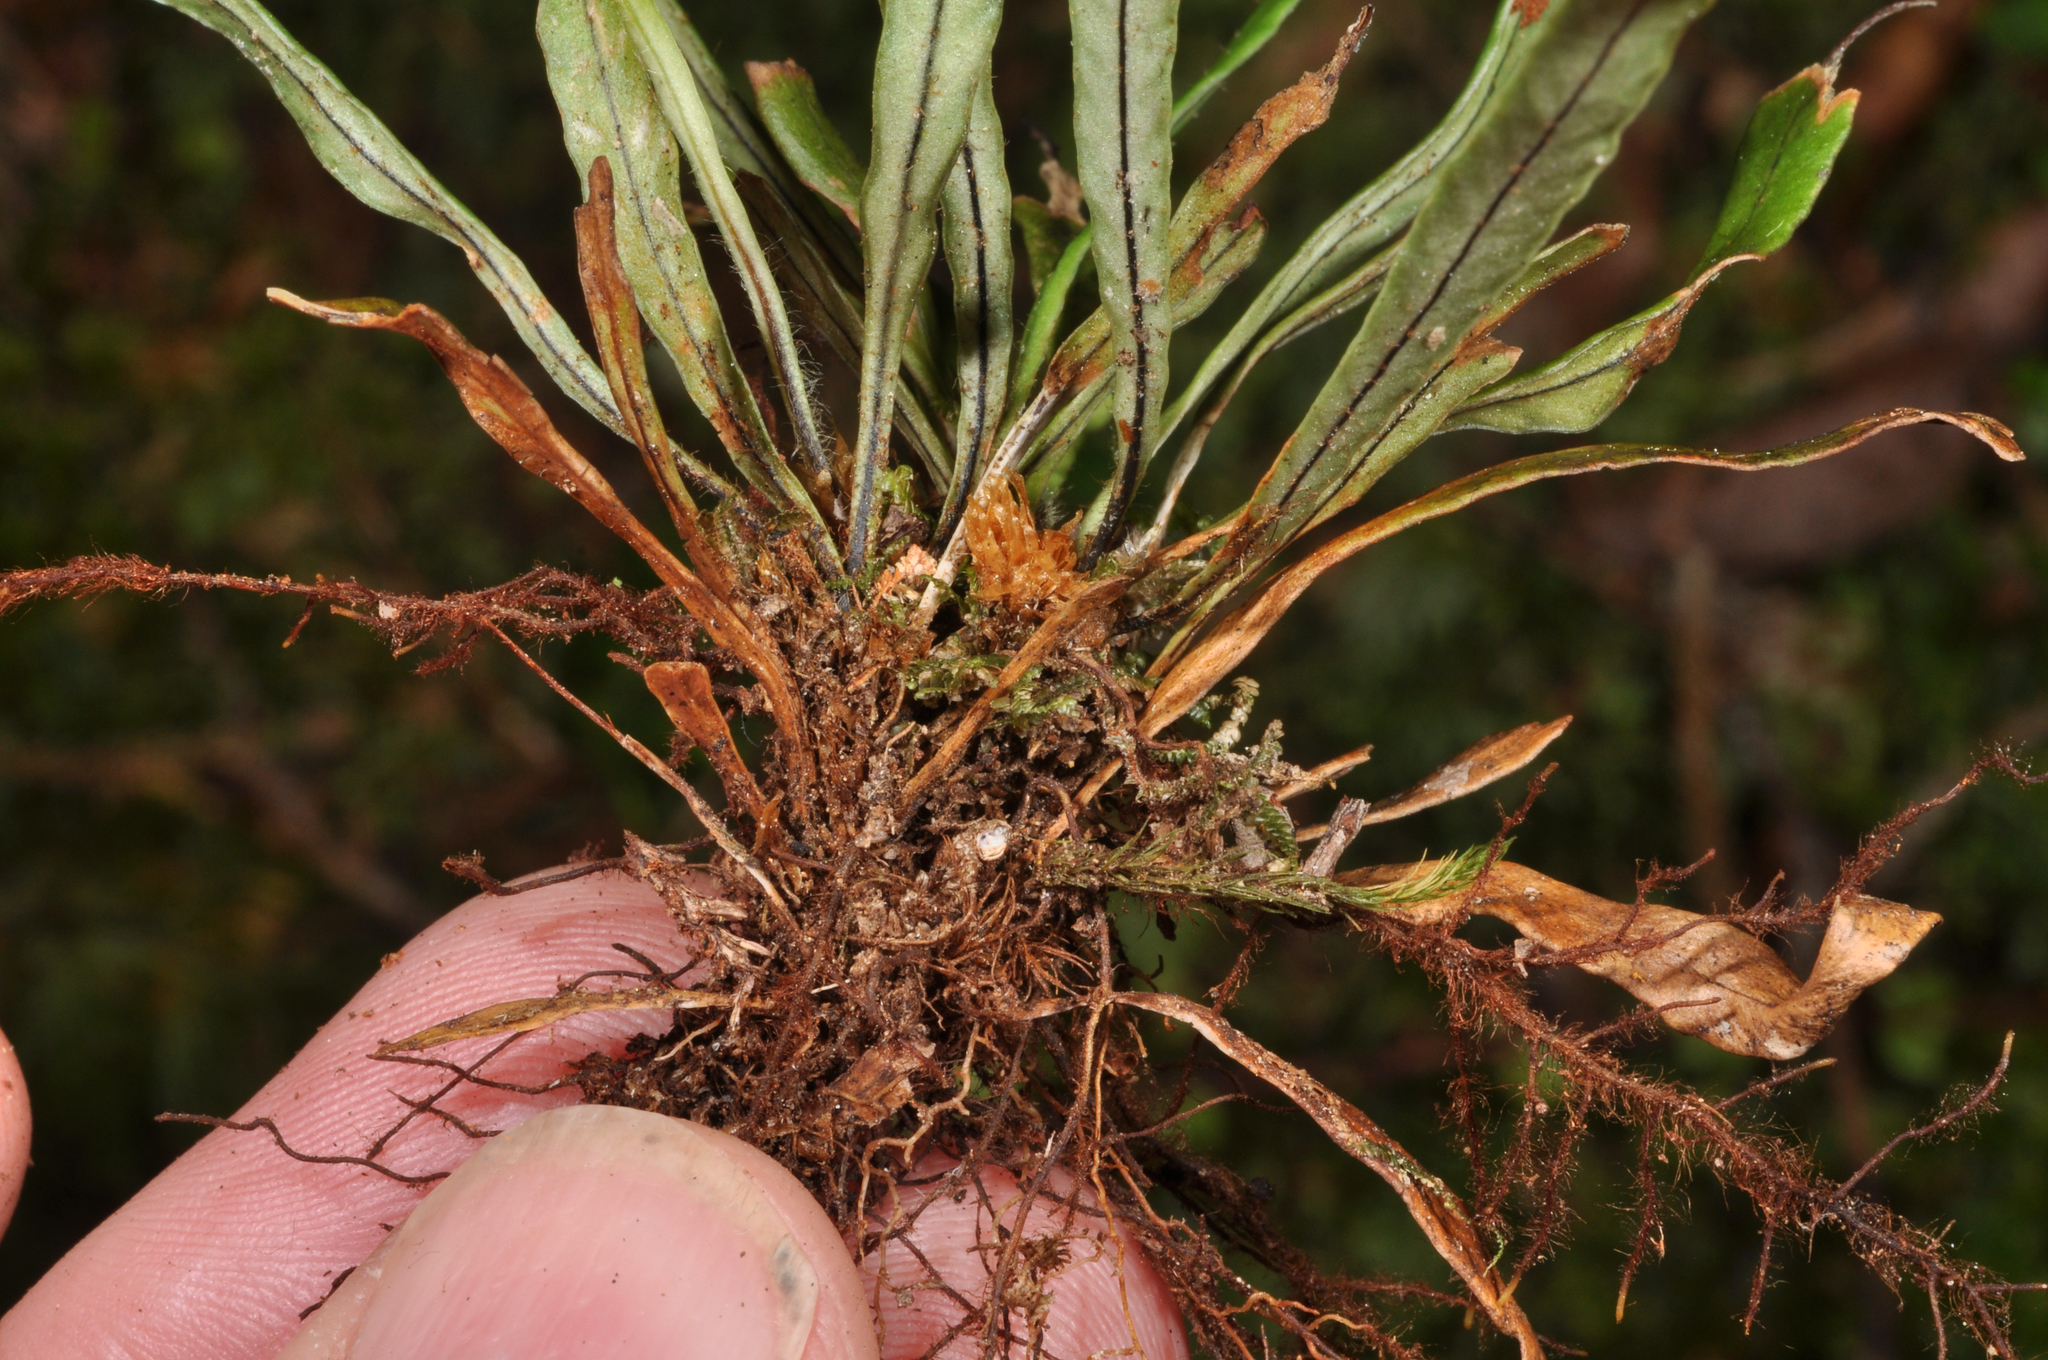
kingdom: Plantae
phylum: Tracheophyta
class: Polypodiopsida
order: Polypodiales
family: Polypodiaceae
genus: Notogrammitis
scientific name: Notogrammitis billardierei
